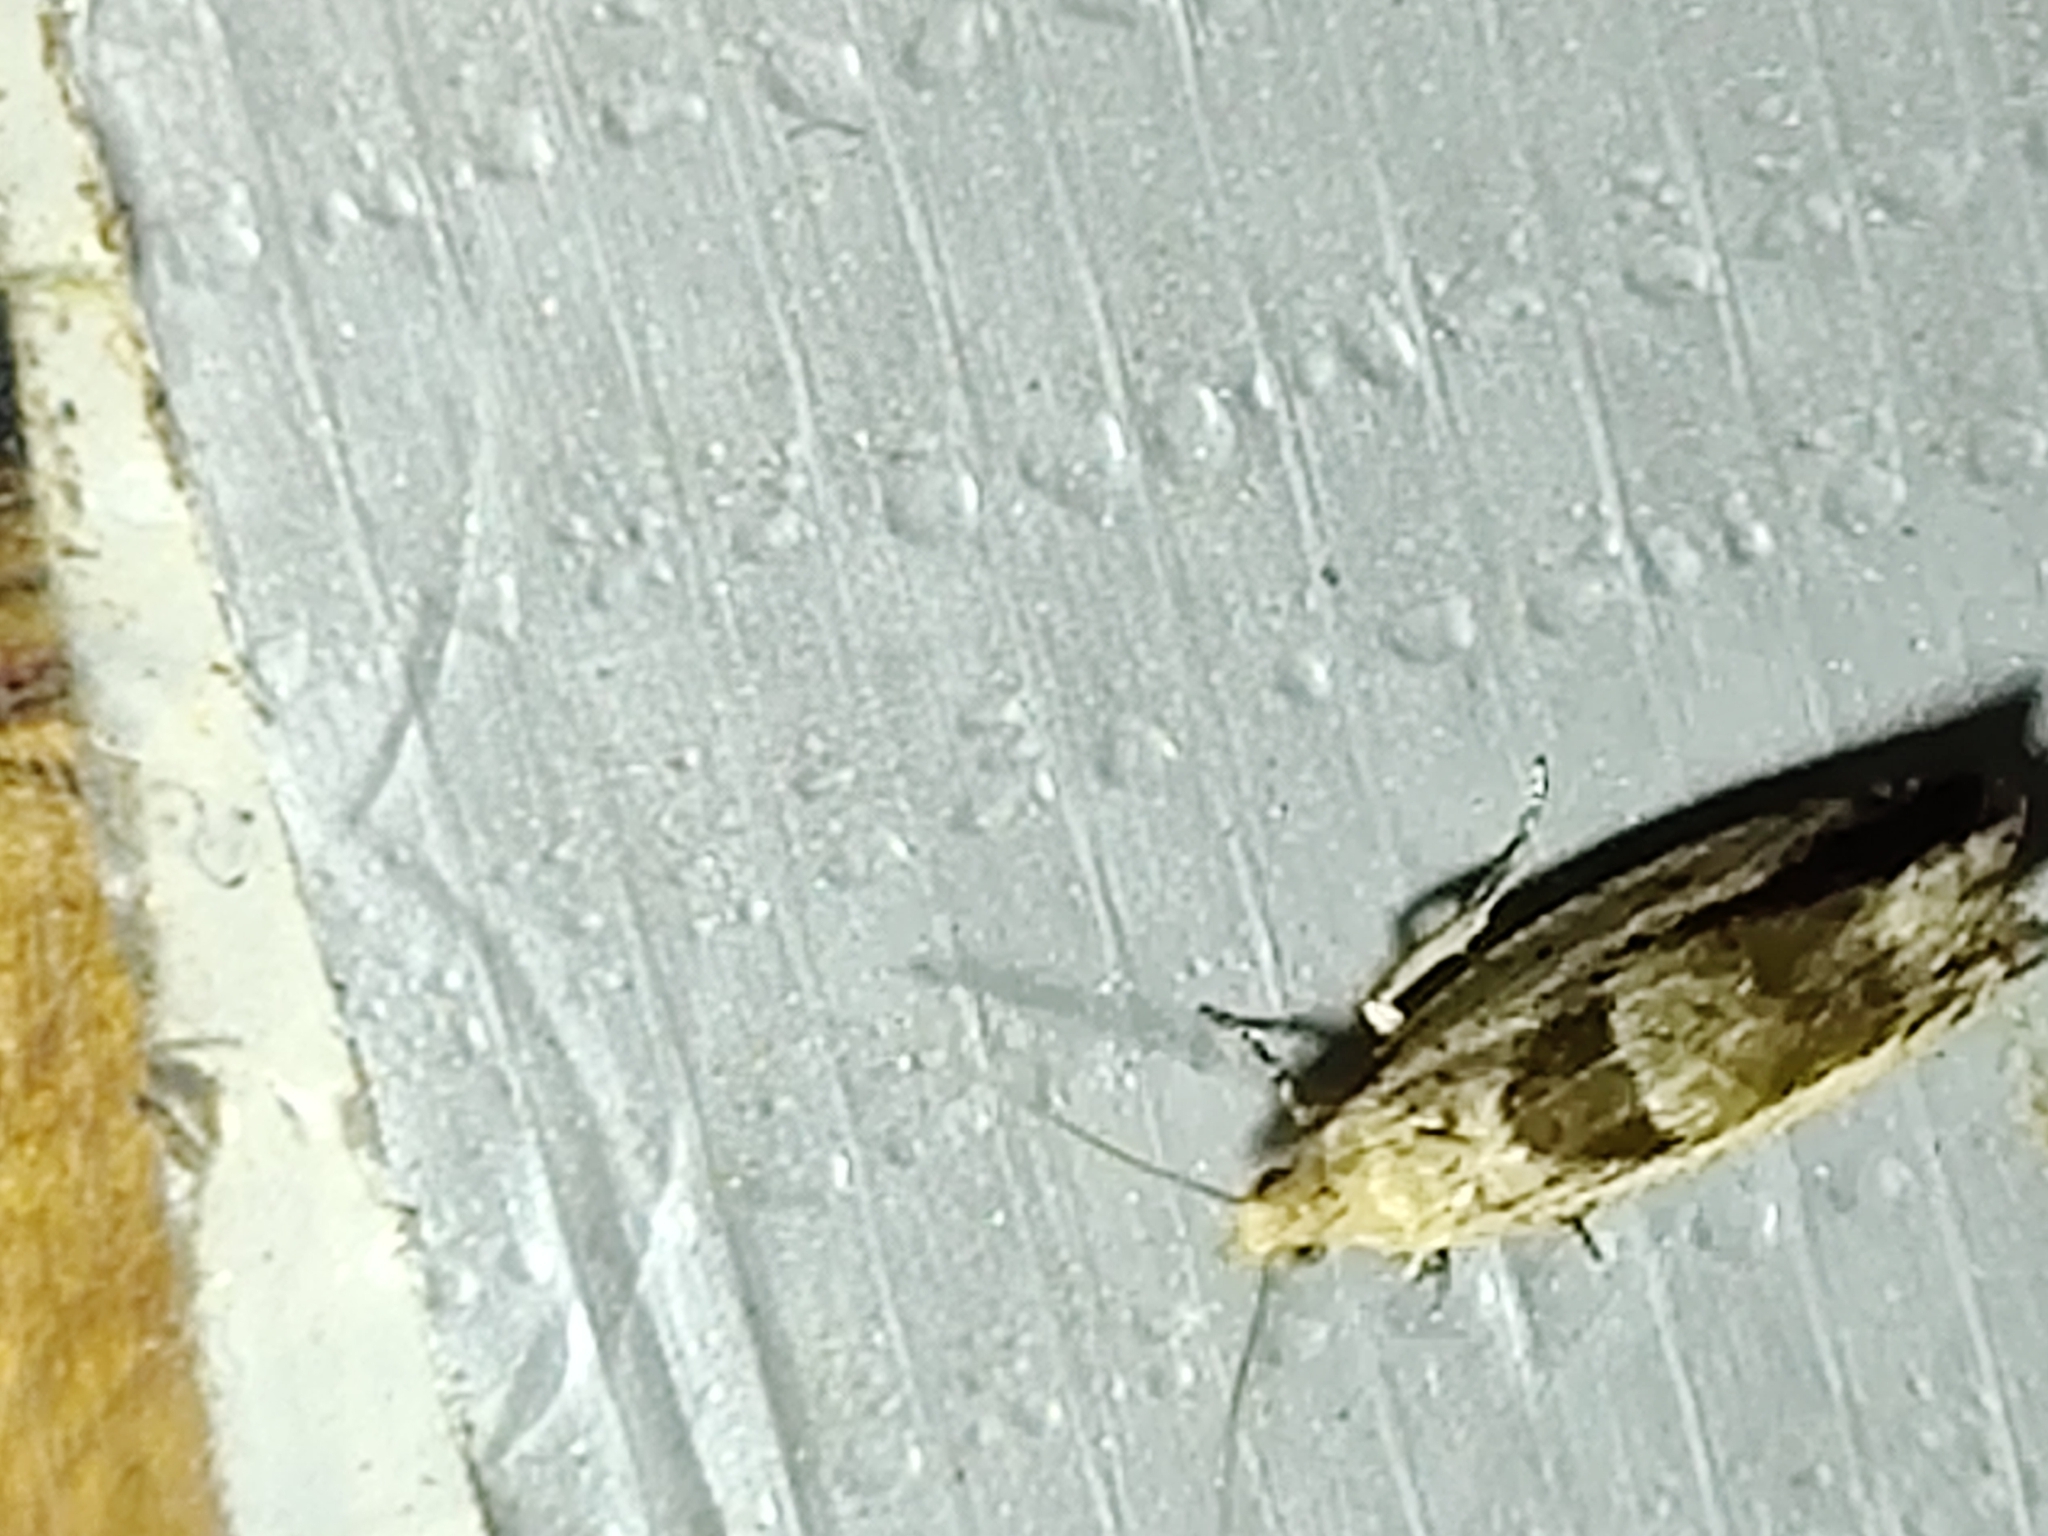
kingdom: Animalia
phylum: Arthropoda
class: Insecta
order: Lepidoptera
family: Tortricidae
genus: Epinotia
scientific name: Epinotia ramella
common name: Small birch bell
